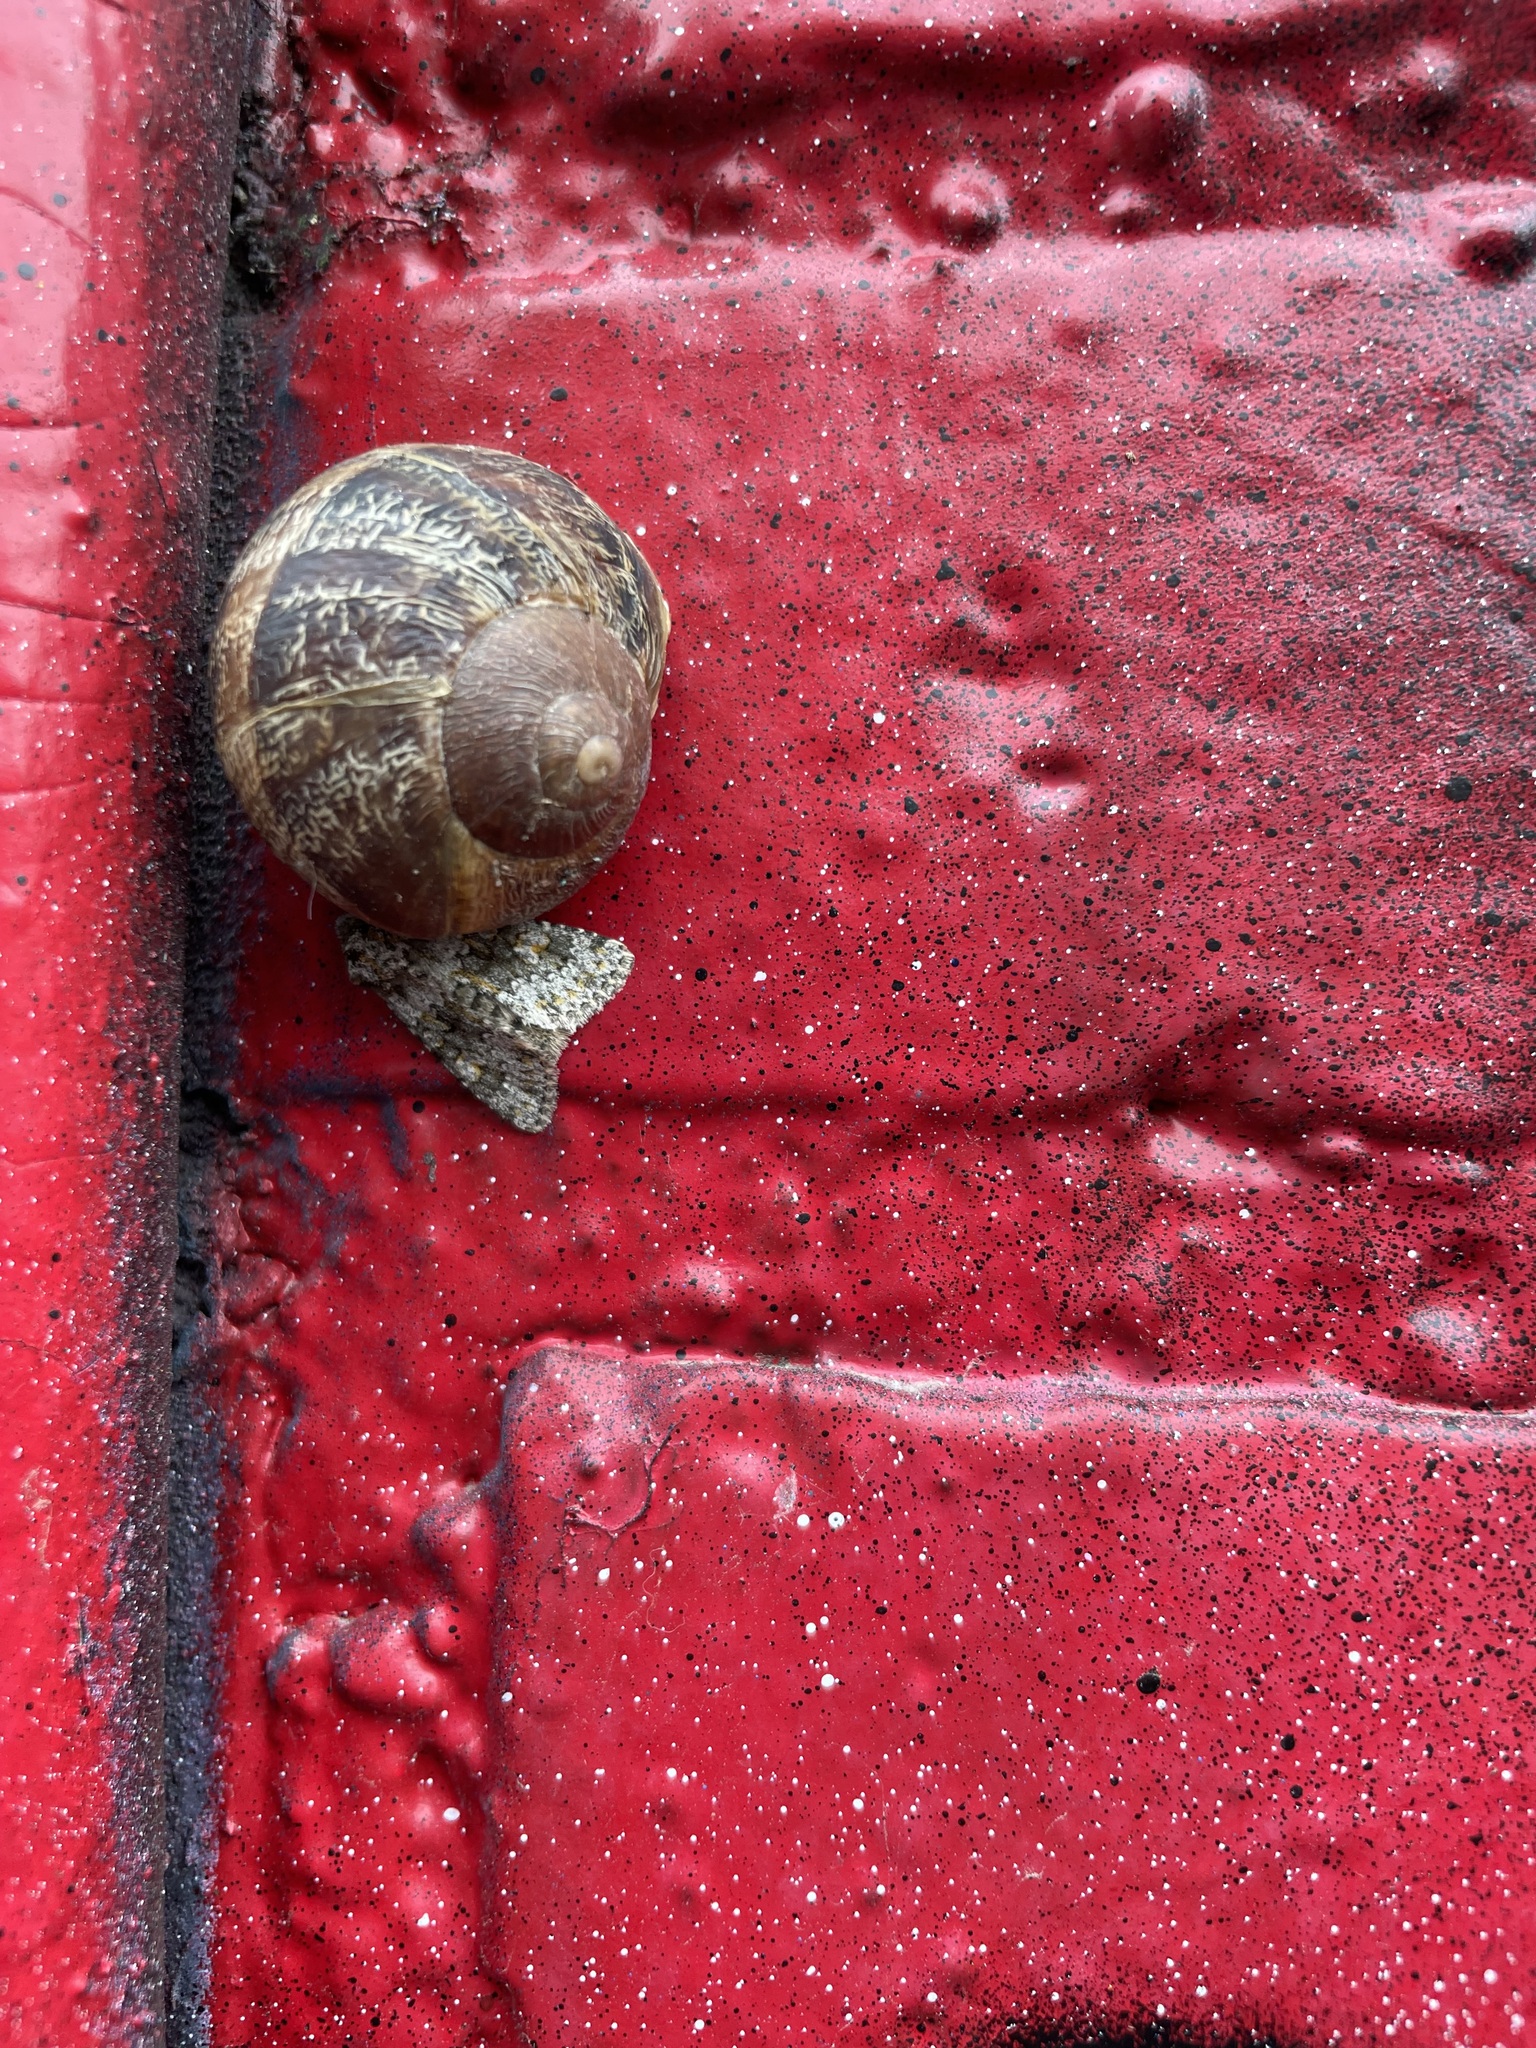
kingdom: Animalia
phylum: Arthropoda
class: Insecta
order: Lepidoptera
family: Noctuidae
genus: Hecatera
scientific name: Hecatera dysodea
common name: Small ranunculus
